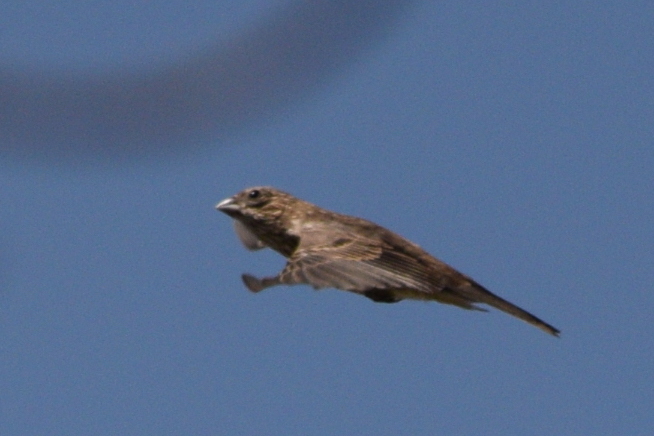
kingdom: Animalia
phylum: Chordata
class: Aves
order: Passeriformes
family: Fringillidae
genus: Haemorhous
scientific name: Haemorhous mexicanus
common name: House finch
